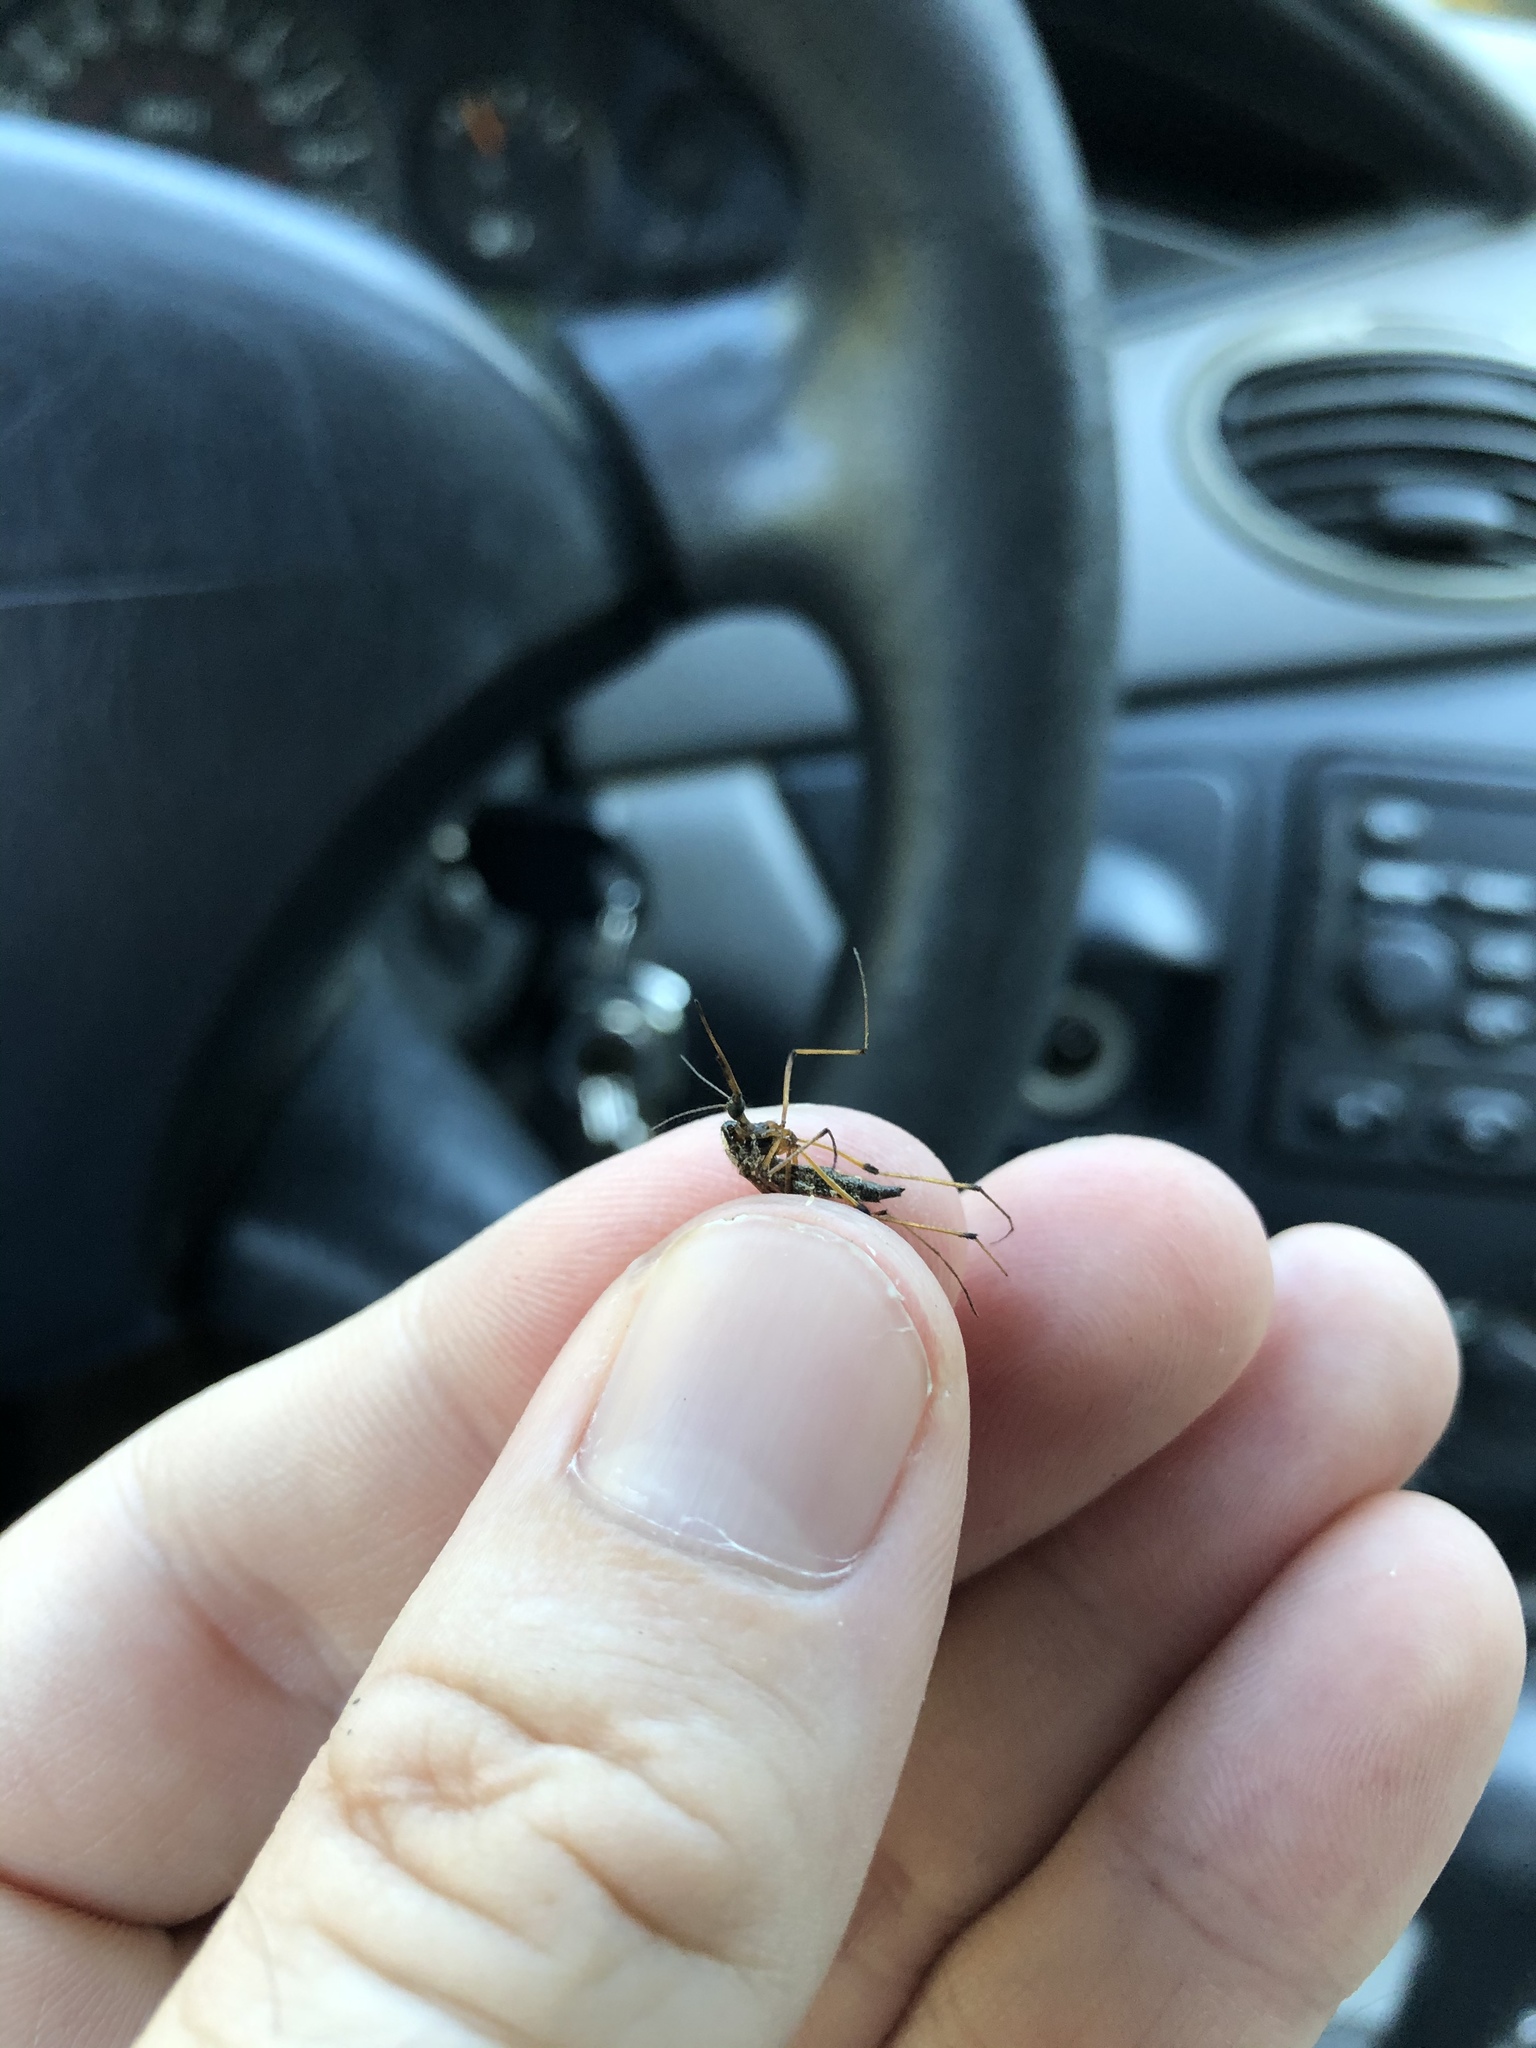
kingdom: Animalia
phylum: Arthropoda
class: Insecta
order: Diptera
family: Culicidae
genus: Psorophora
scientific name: Psorophora howardii
